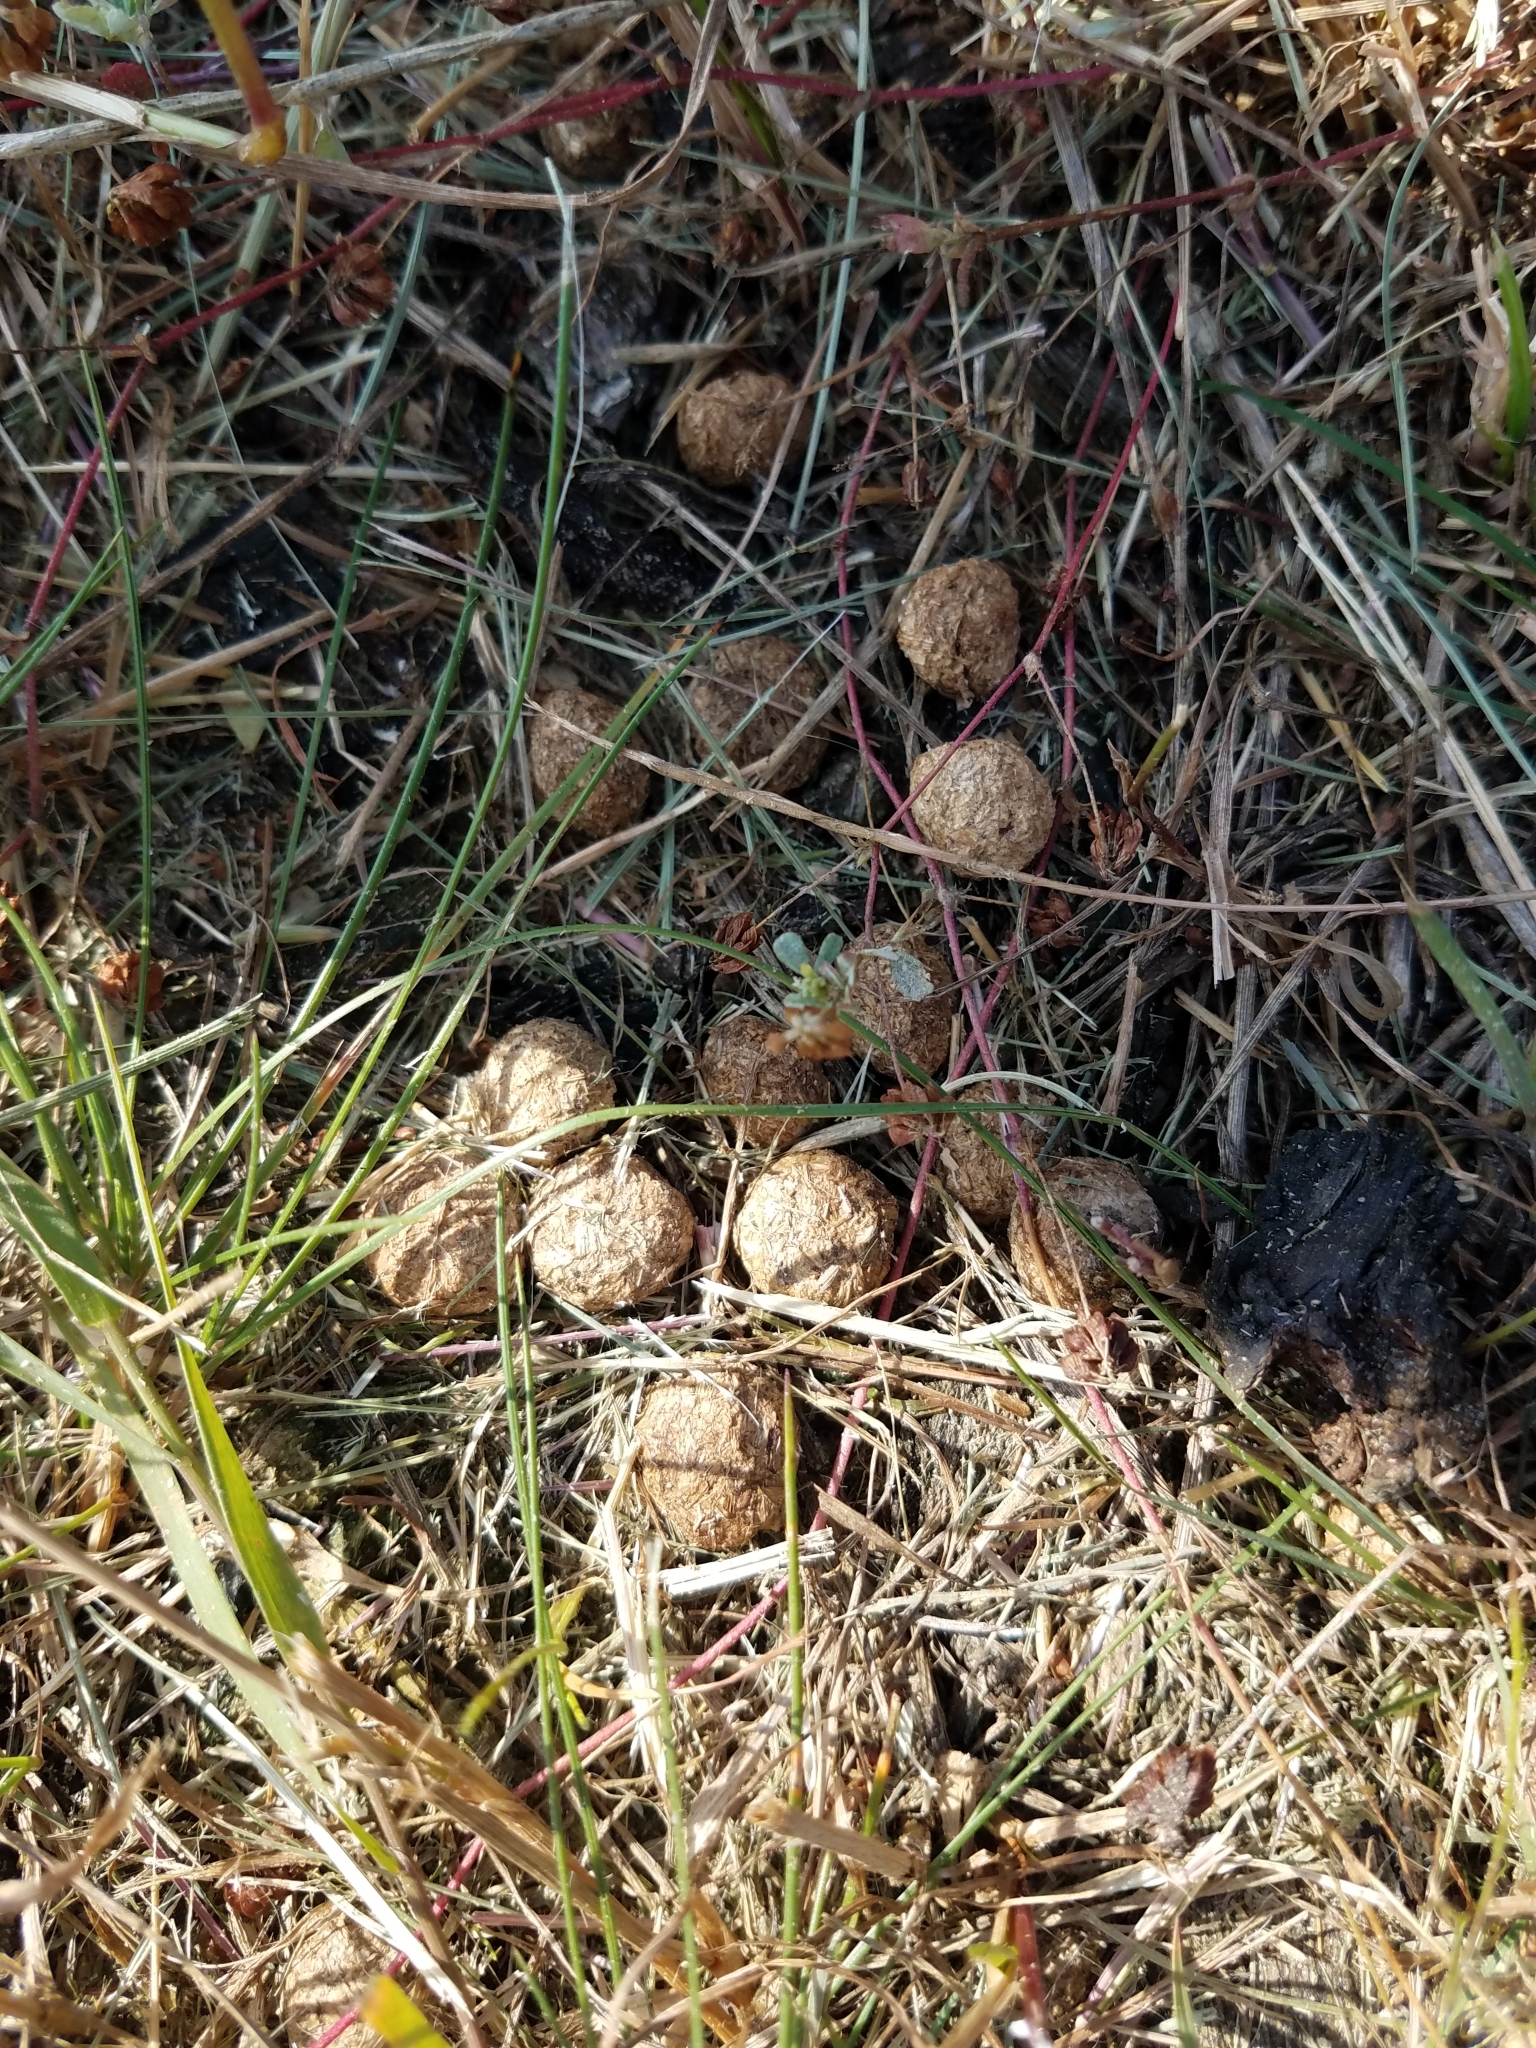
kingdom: Animalia
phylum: Chordata
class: Mammalia
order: Lagomorpha
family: Leporidae
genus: Lepus
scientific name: Lepus europaeus
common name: European hare
